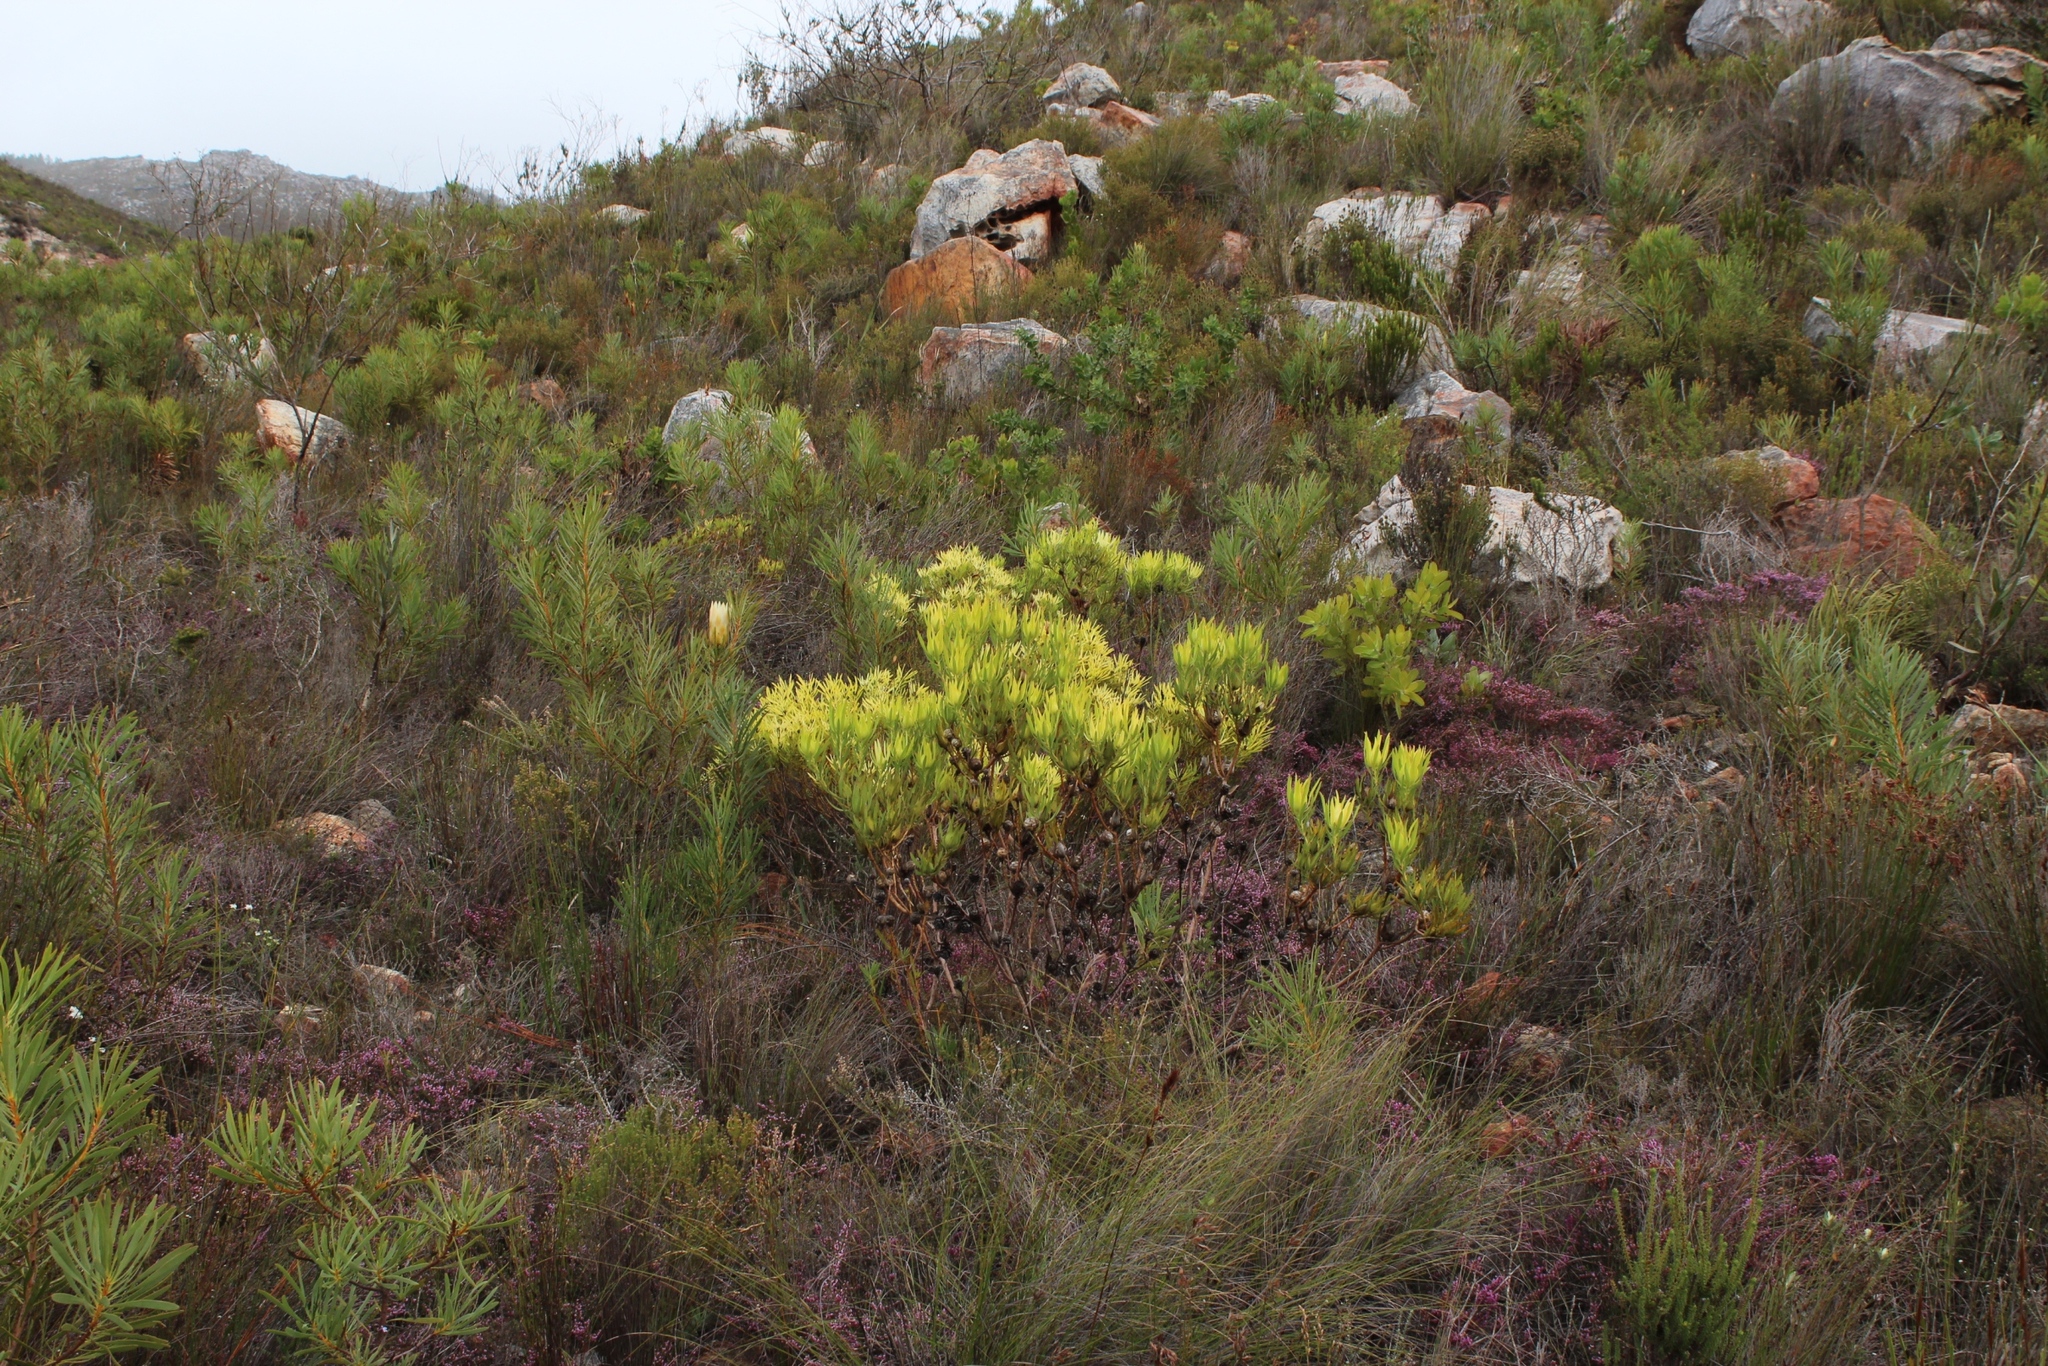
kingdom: Plantae
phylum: Tracheophyta
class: Magnoliopsida
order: Proteales
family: Proteaceae
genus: Leucadendron
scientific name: Leucadendron salignum
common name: Common sunshine conebush
